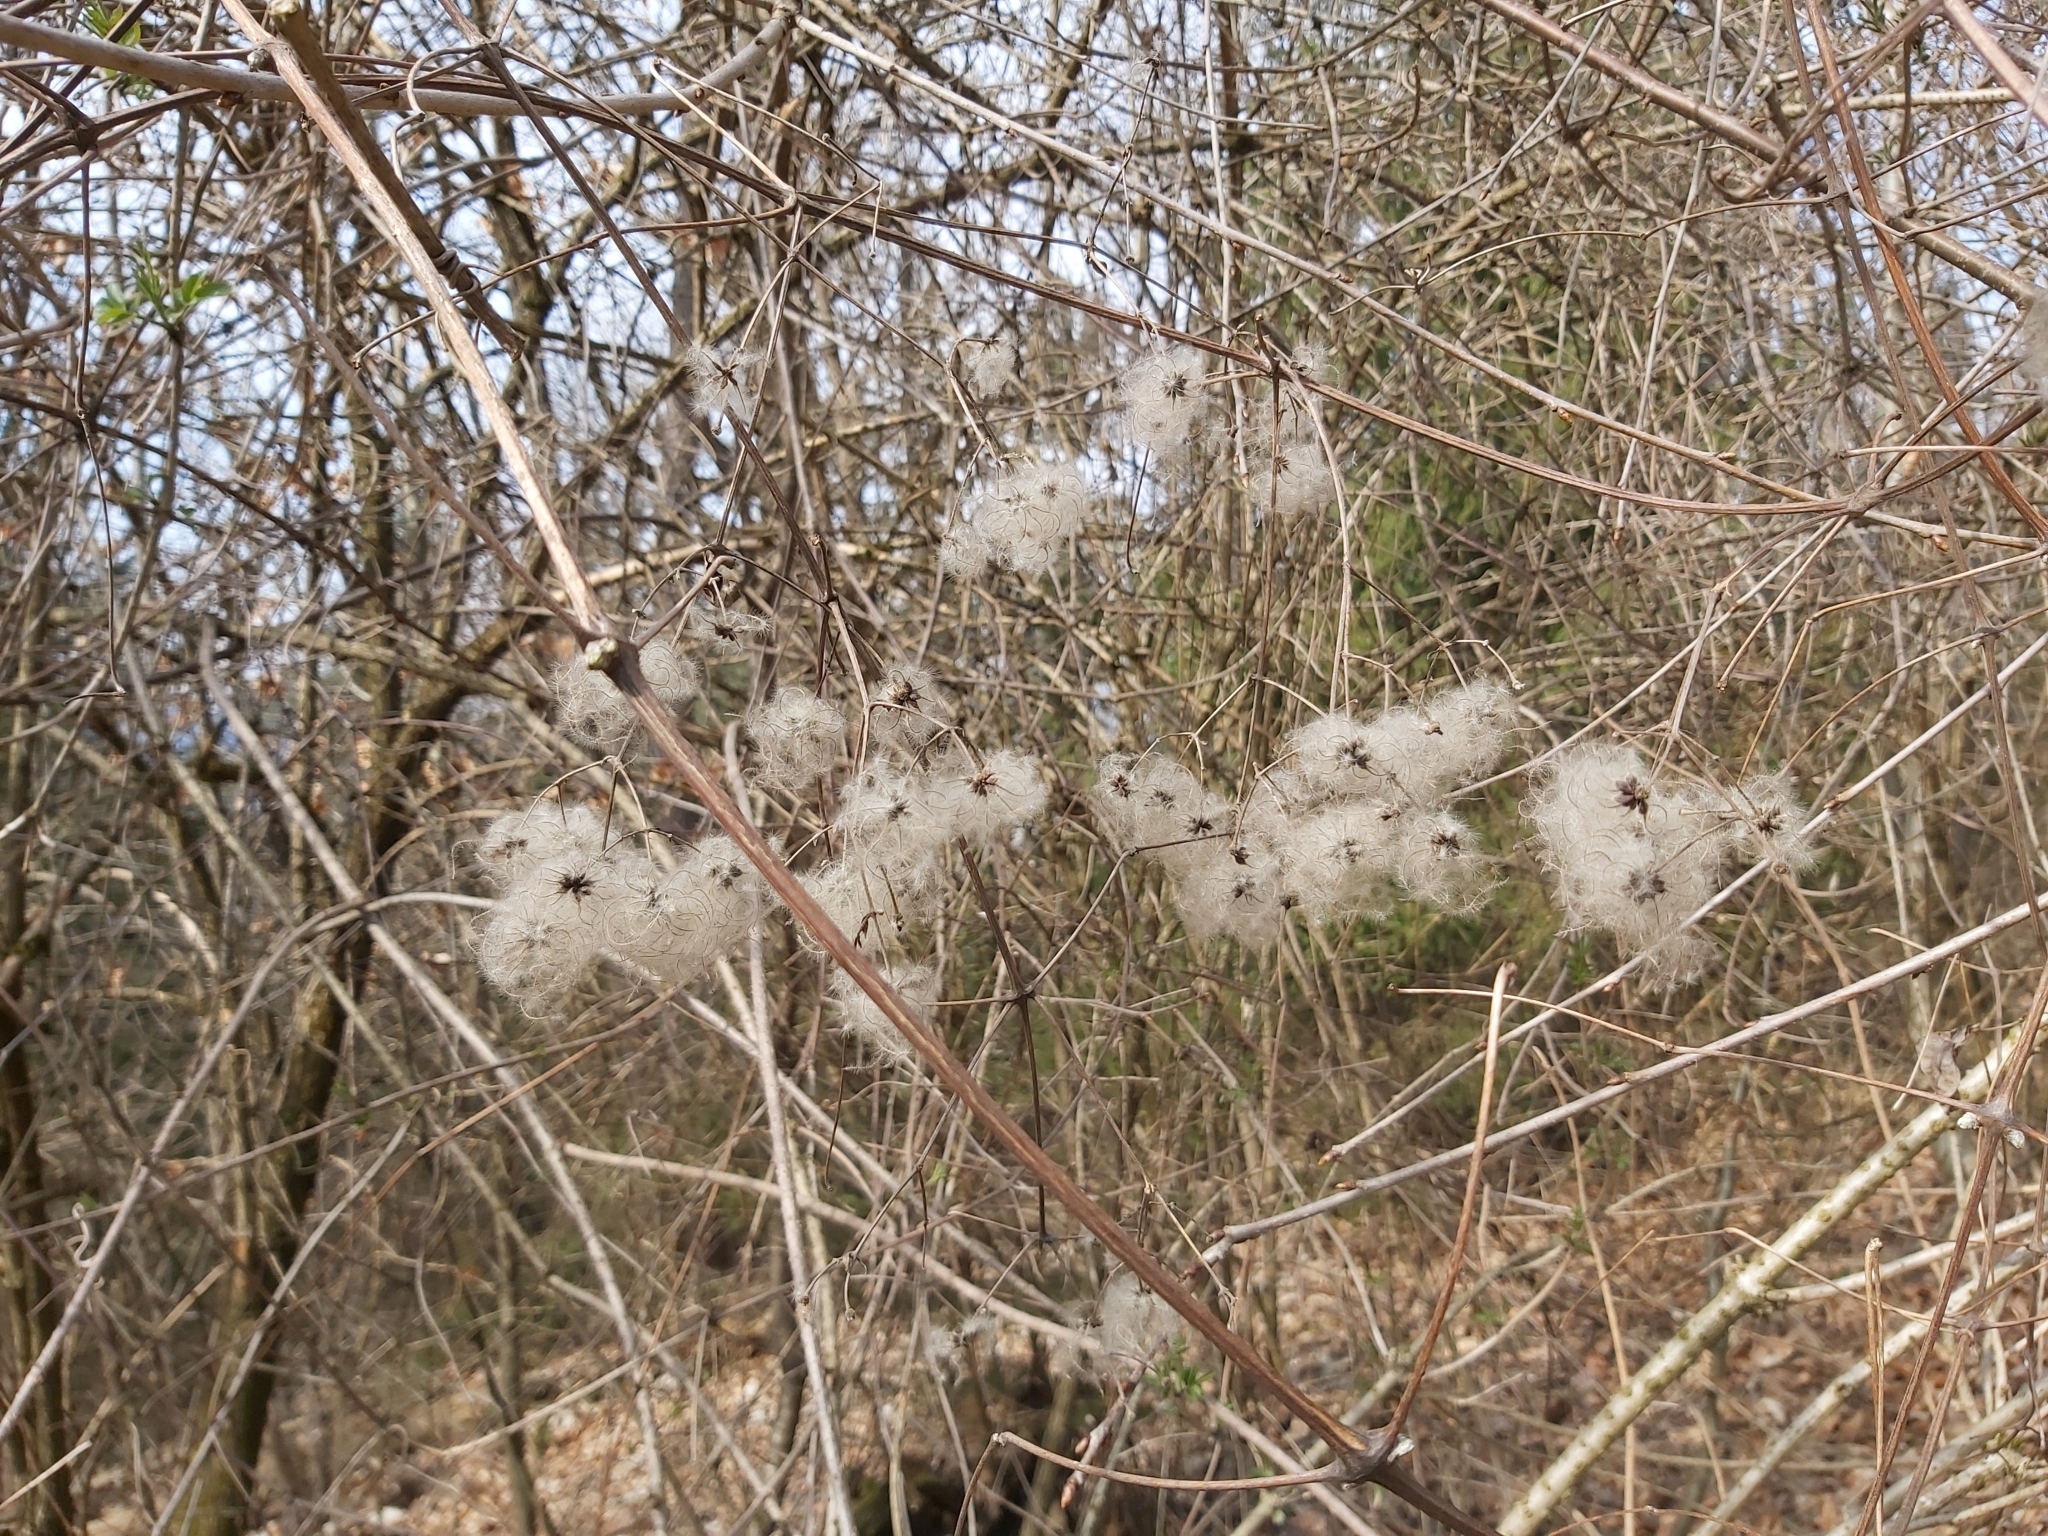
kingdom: Plantae
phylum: Tracheophyta
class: Magnoliopsida
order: Ranunculales
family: Ranunculaceae
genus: Clematis
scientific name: Clematis vitalba
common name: Evergreen clematis
